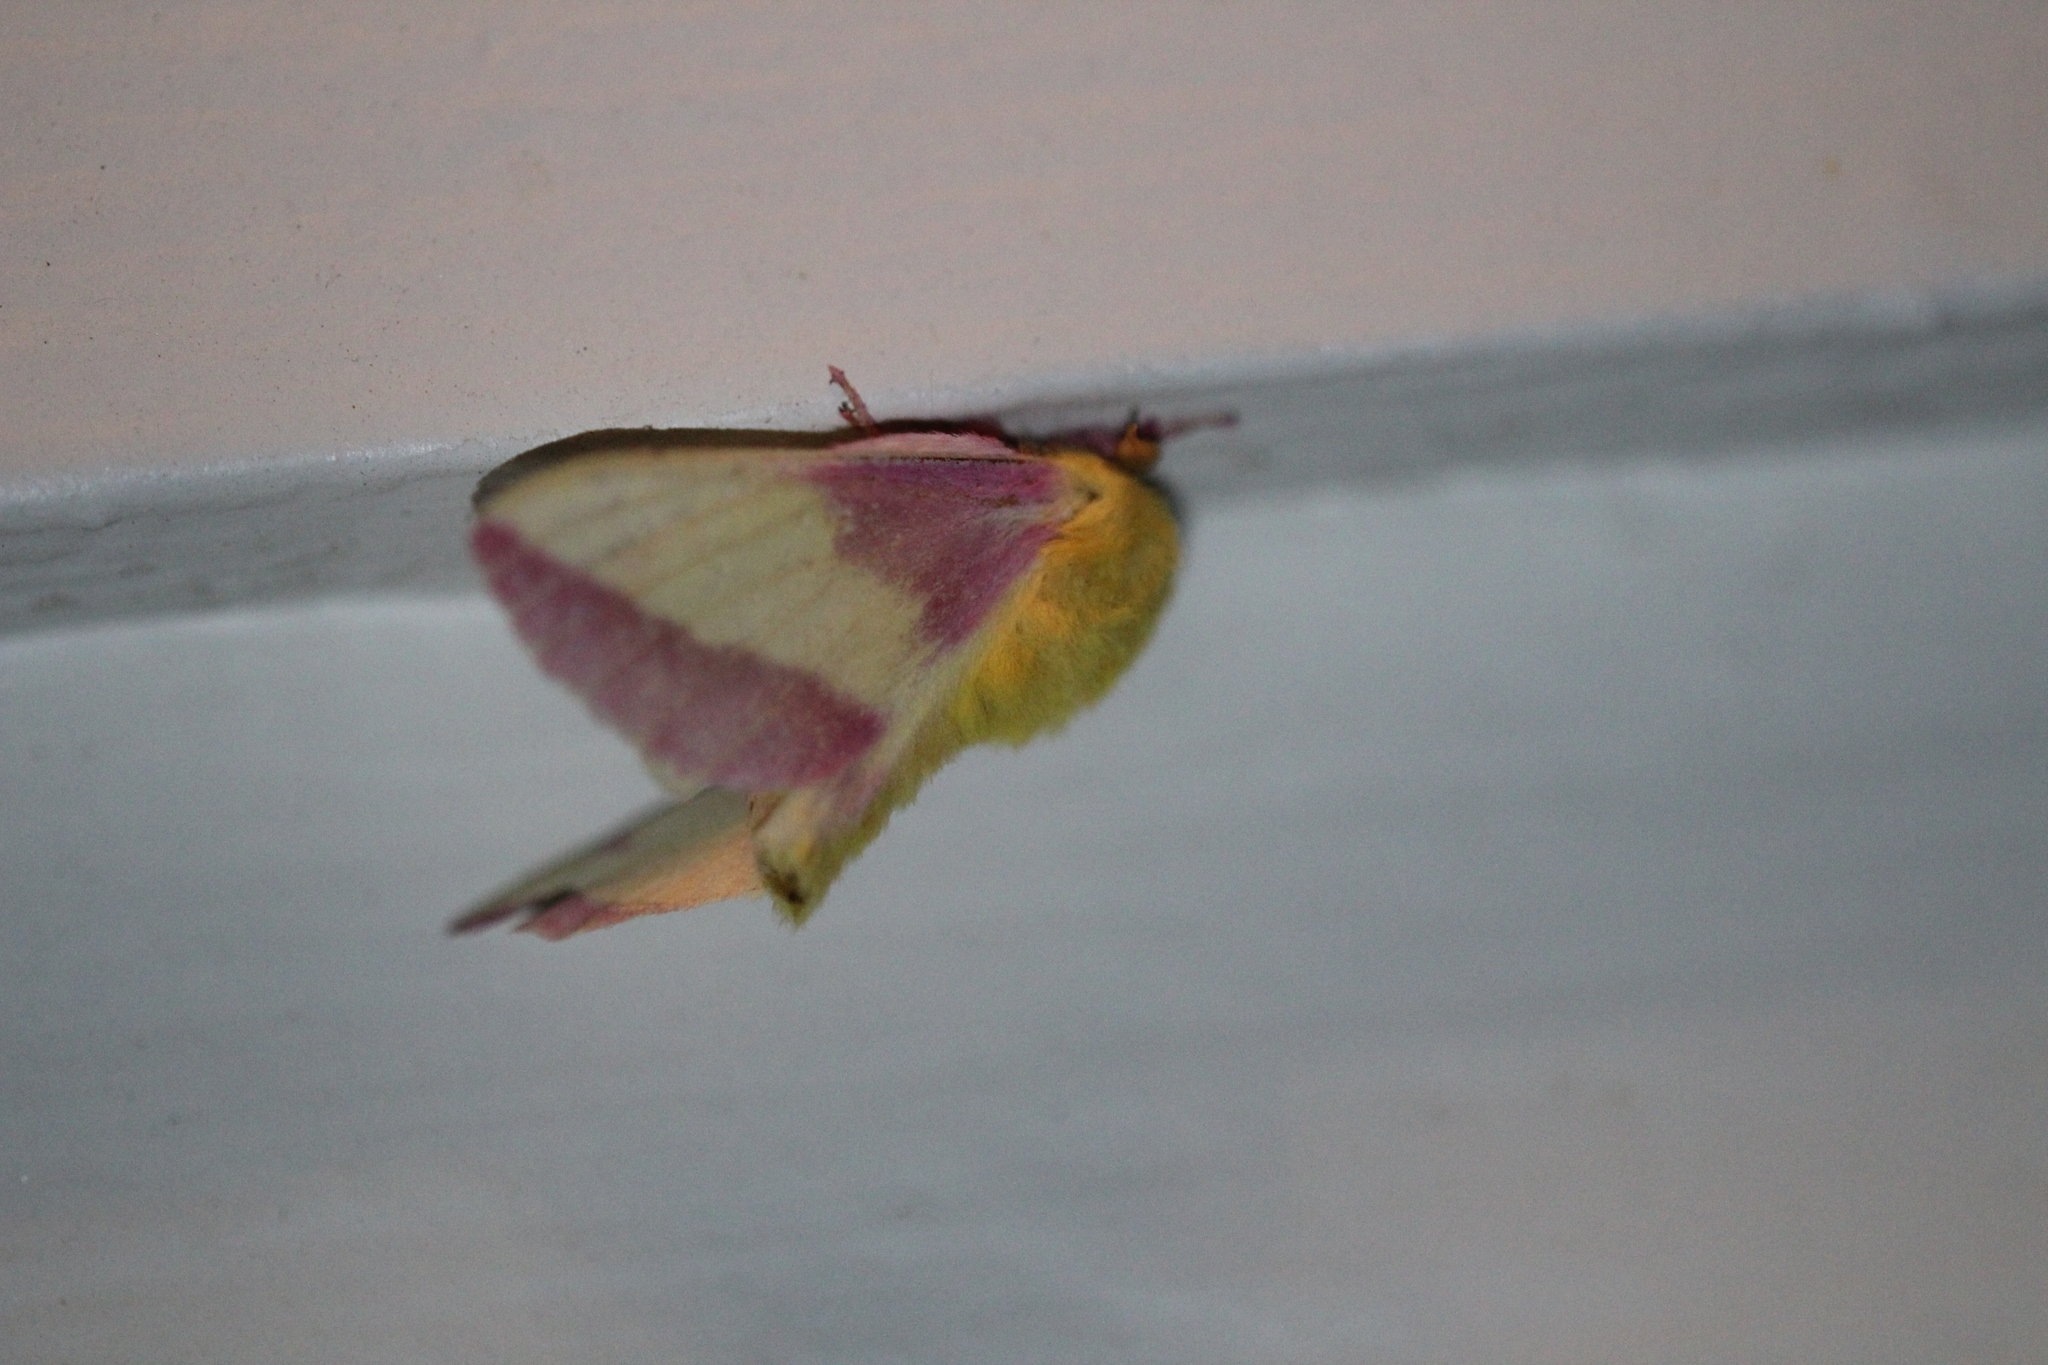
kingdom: Animalia
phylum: Arthropoda
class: Insecta
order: Lepidoptera
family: Saturniidae
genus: Dryocampa
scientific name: Dryocampa rubicunda
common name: Rosy maple moth
